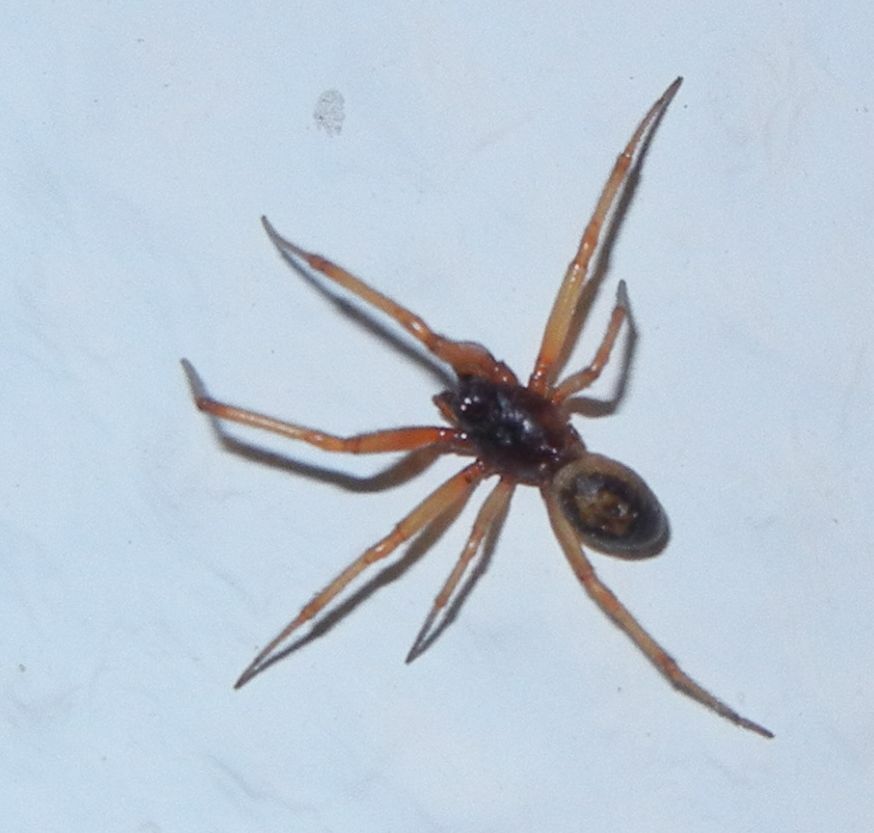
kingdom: Animalia
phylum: Arthropoda
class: Arachnida
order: Araneae
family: Theridiidae
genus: Steatoda
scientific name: Steatoda nobilis
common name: Cobweb weaver
